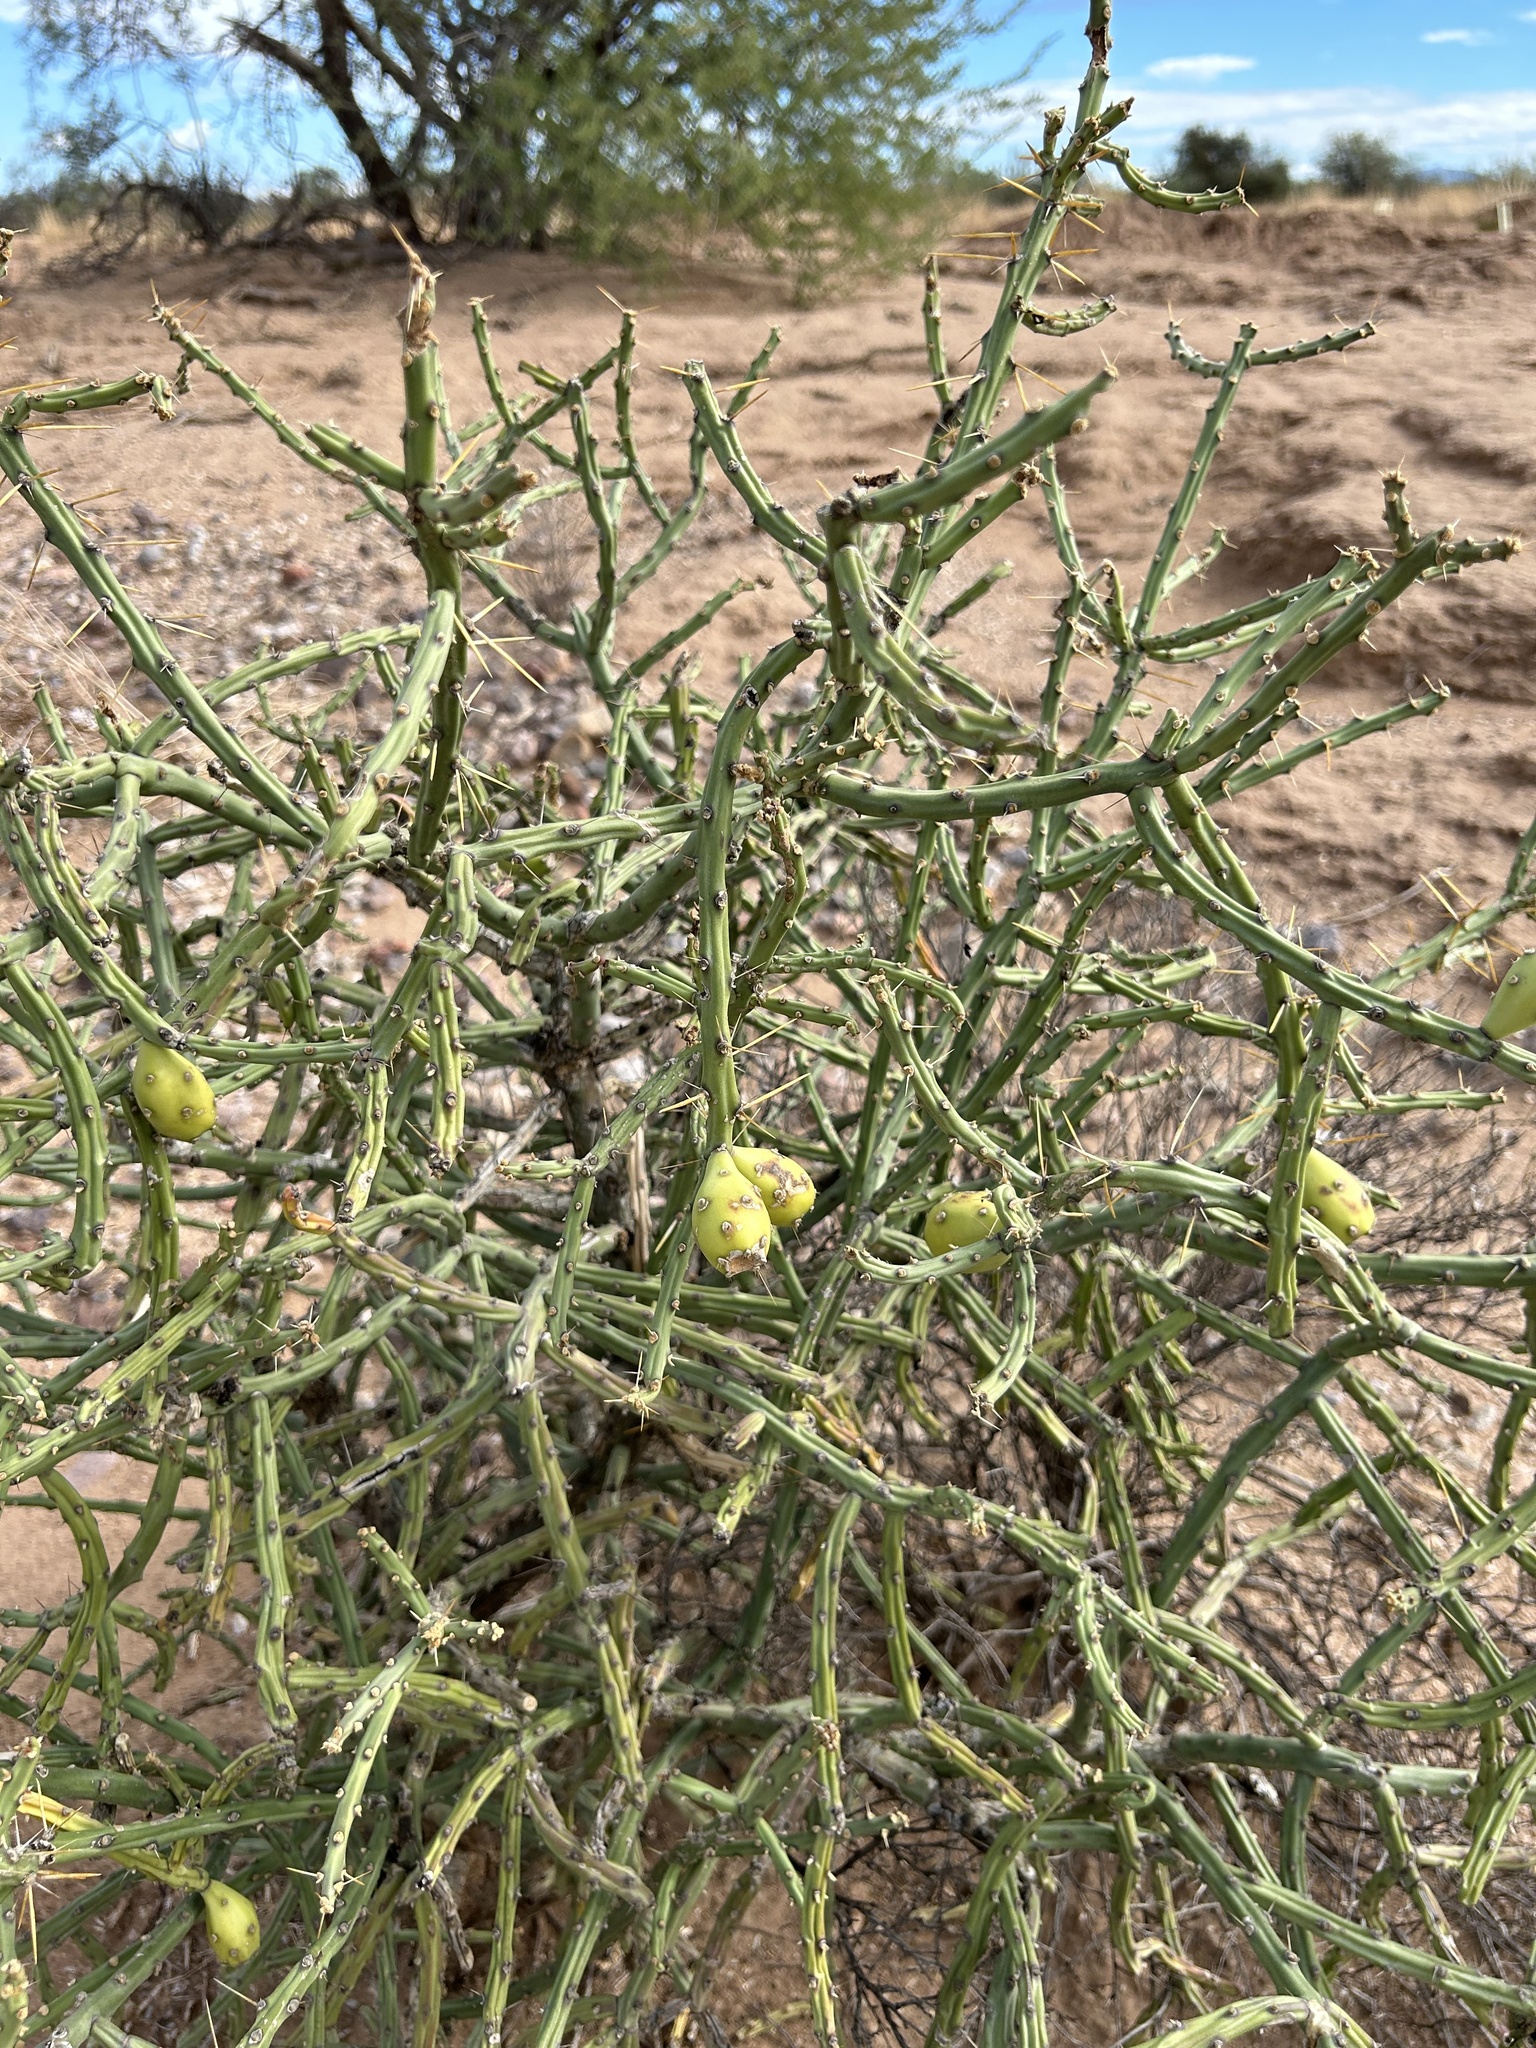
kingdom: Plantae
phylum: Tracheophyta
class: Magnoliopsida
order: Caryophyllales
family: Cactaceae
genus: Cylindropuntia
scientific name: Cylindropuntia arbuscula
